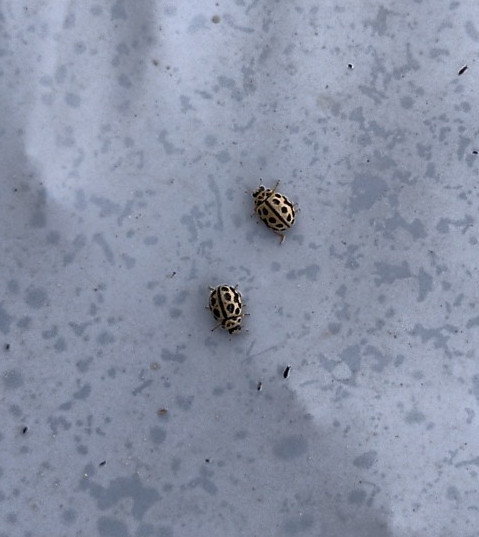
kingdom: Animalia
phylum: Arthropoda
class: Insecta
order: Coleoptera
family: Coccinellidae
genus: Tytthaspis
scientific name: Tytthaspis sedecimpunctata
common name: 16-spot ladybird
